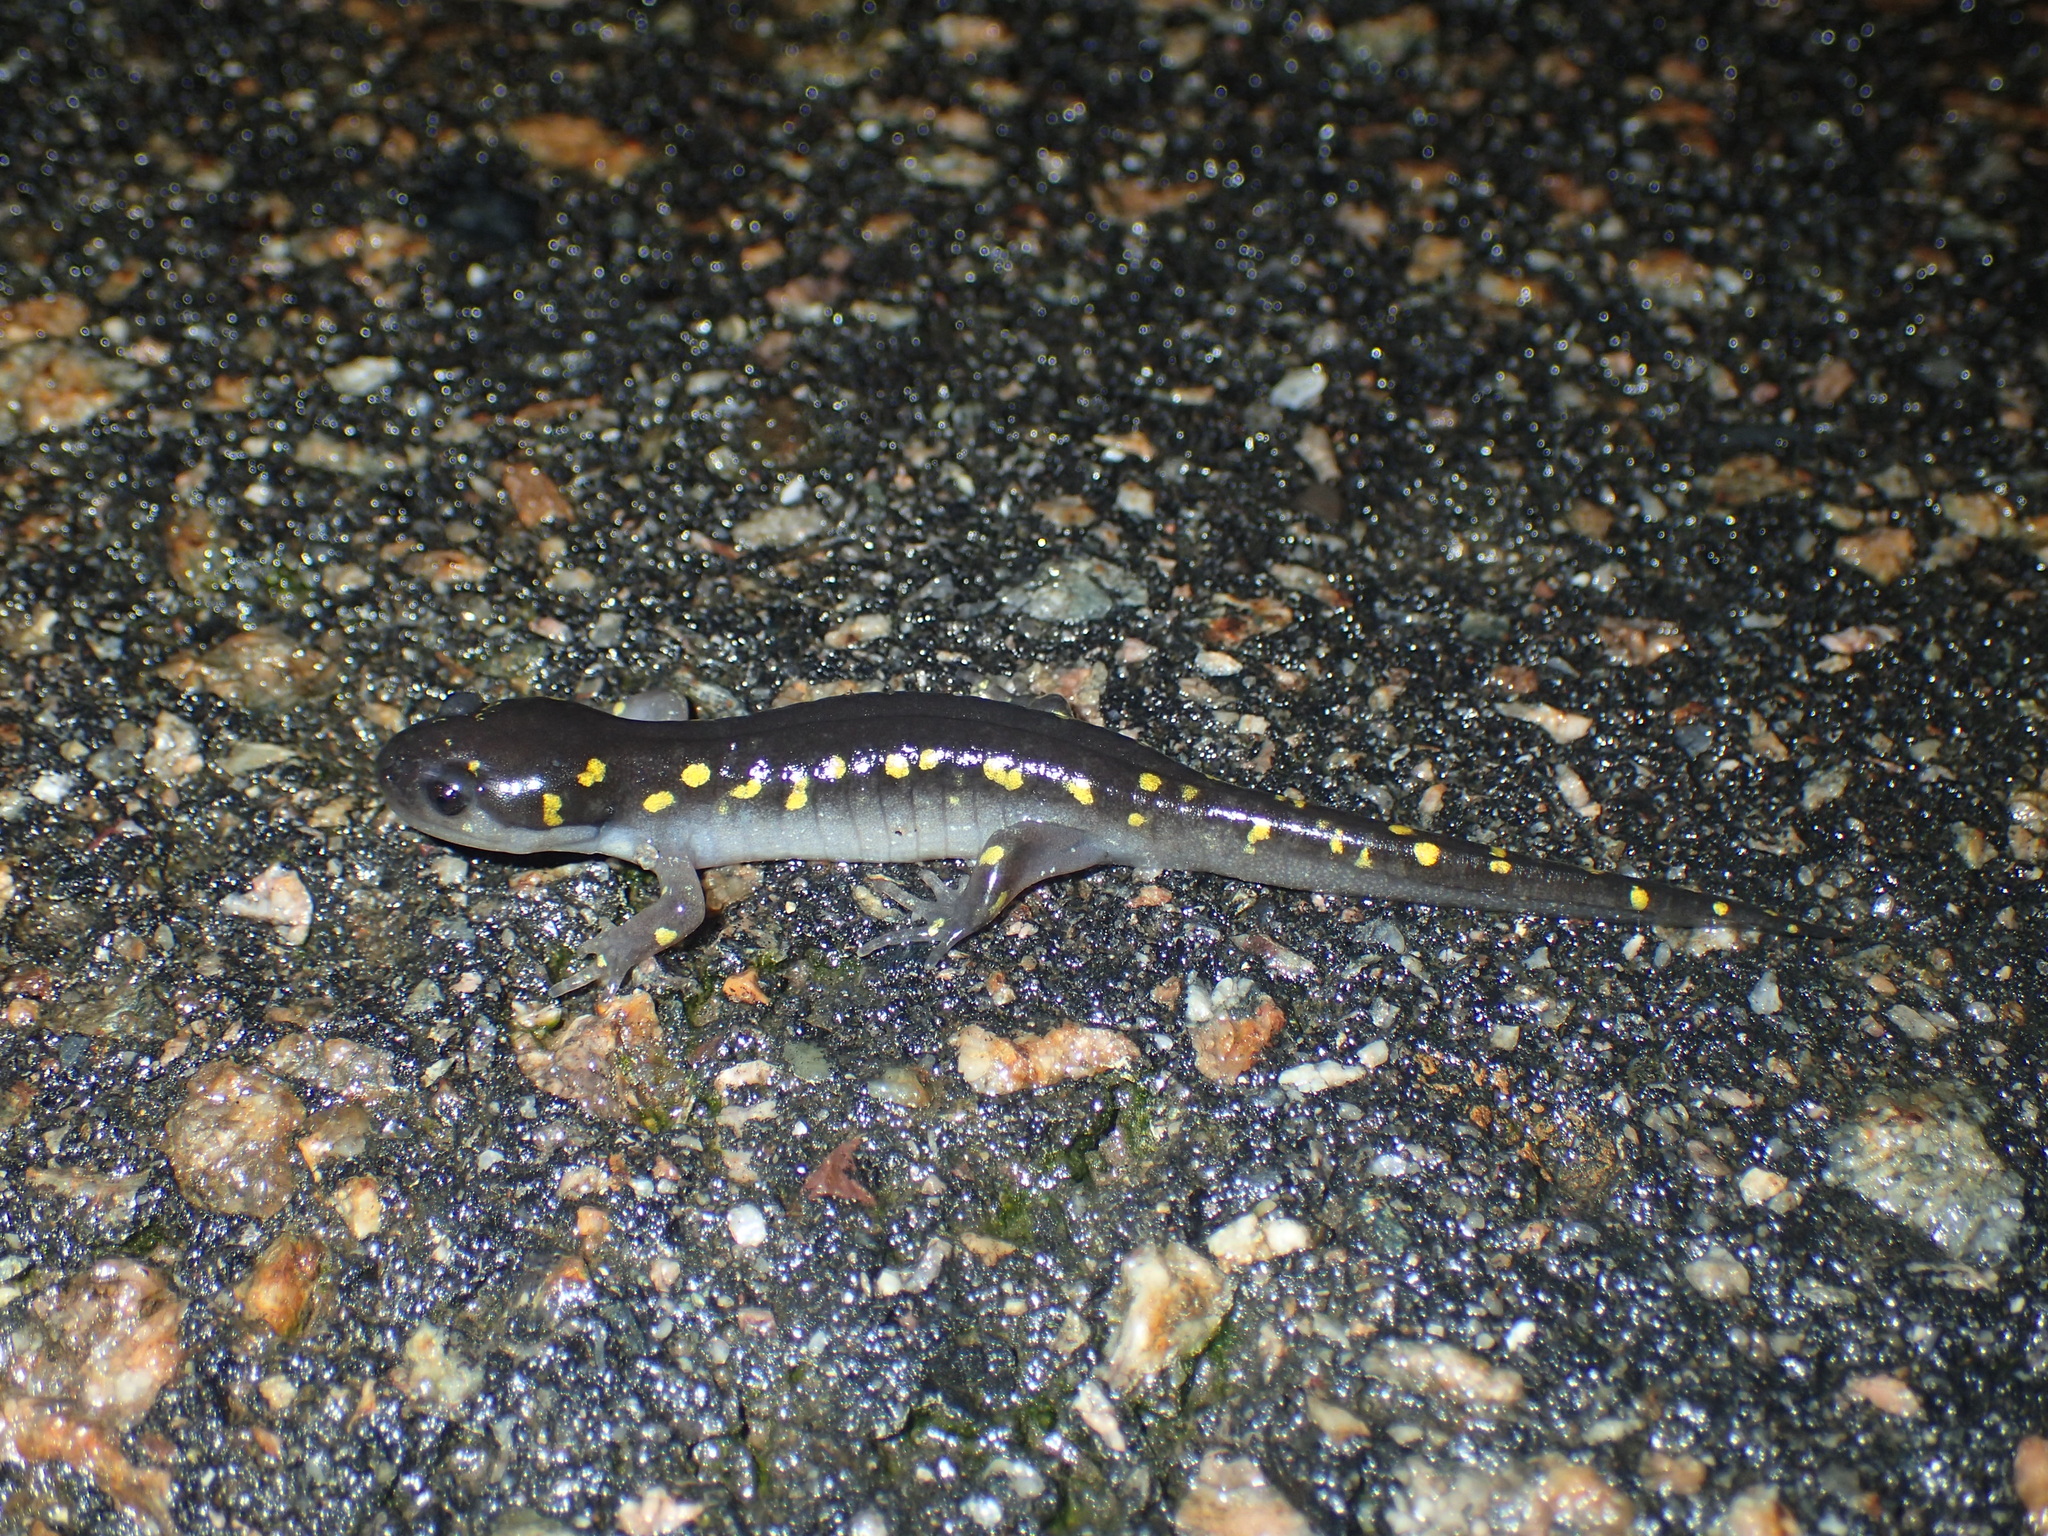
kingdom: Animalia
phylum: Chordata
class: Amphibia
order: Caudata
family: Ambystomatidae
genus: Ambystoma
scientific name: Ambystoma maculatum
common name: Spotted salamander
